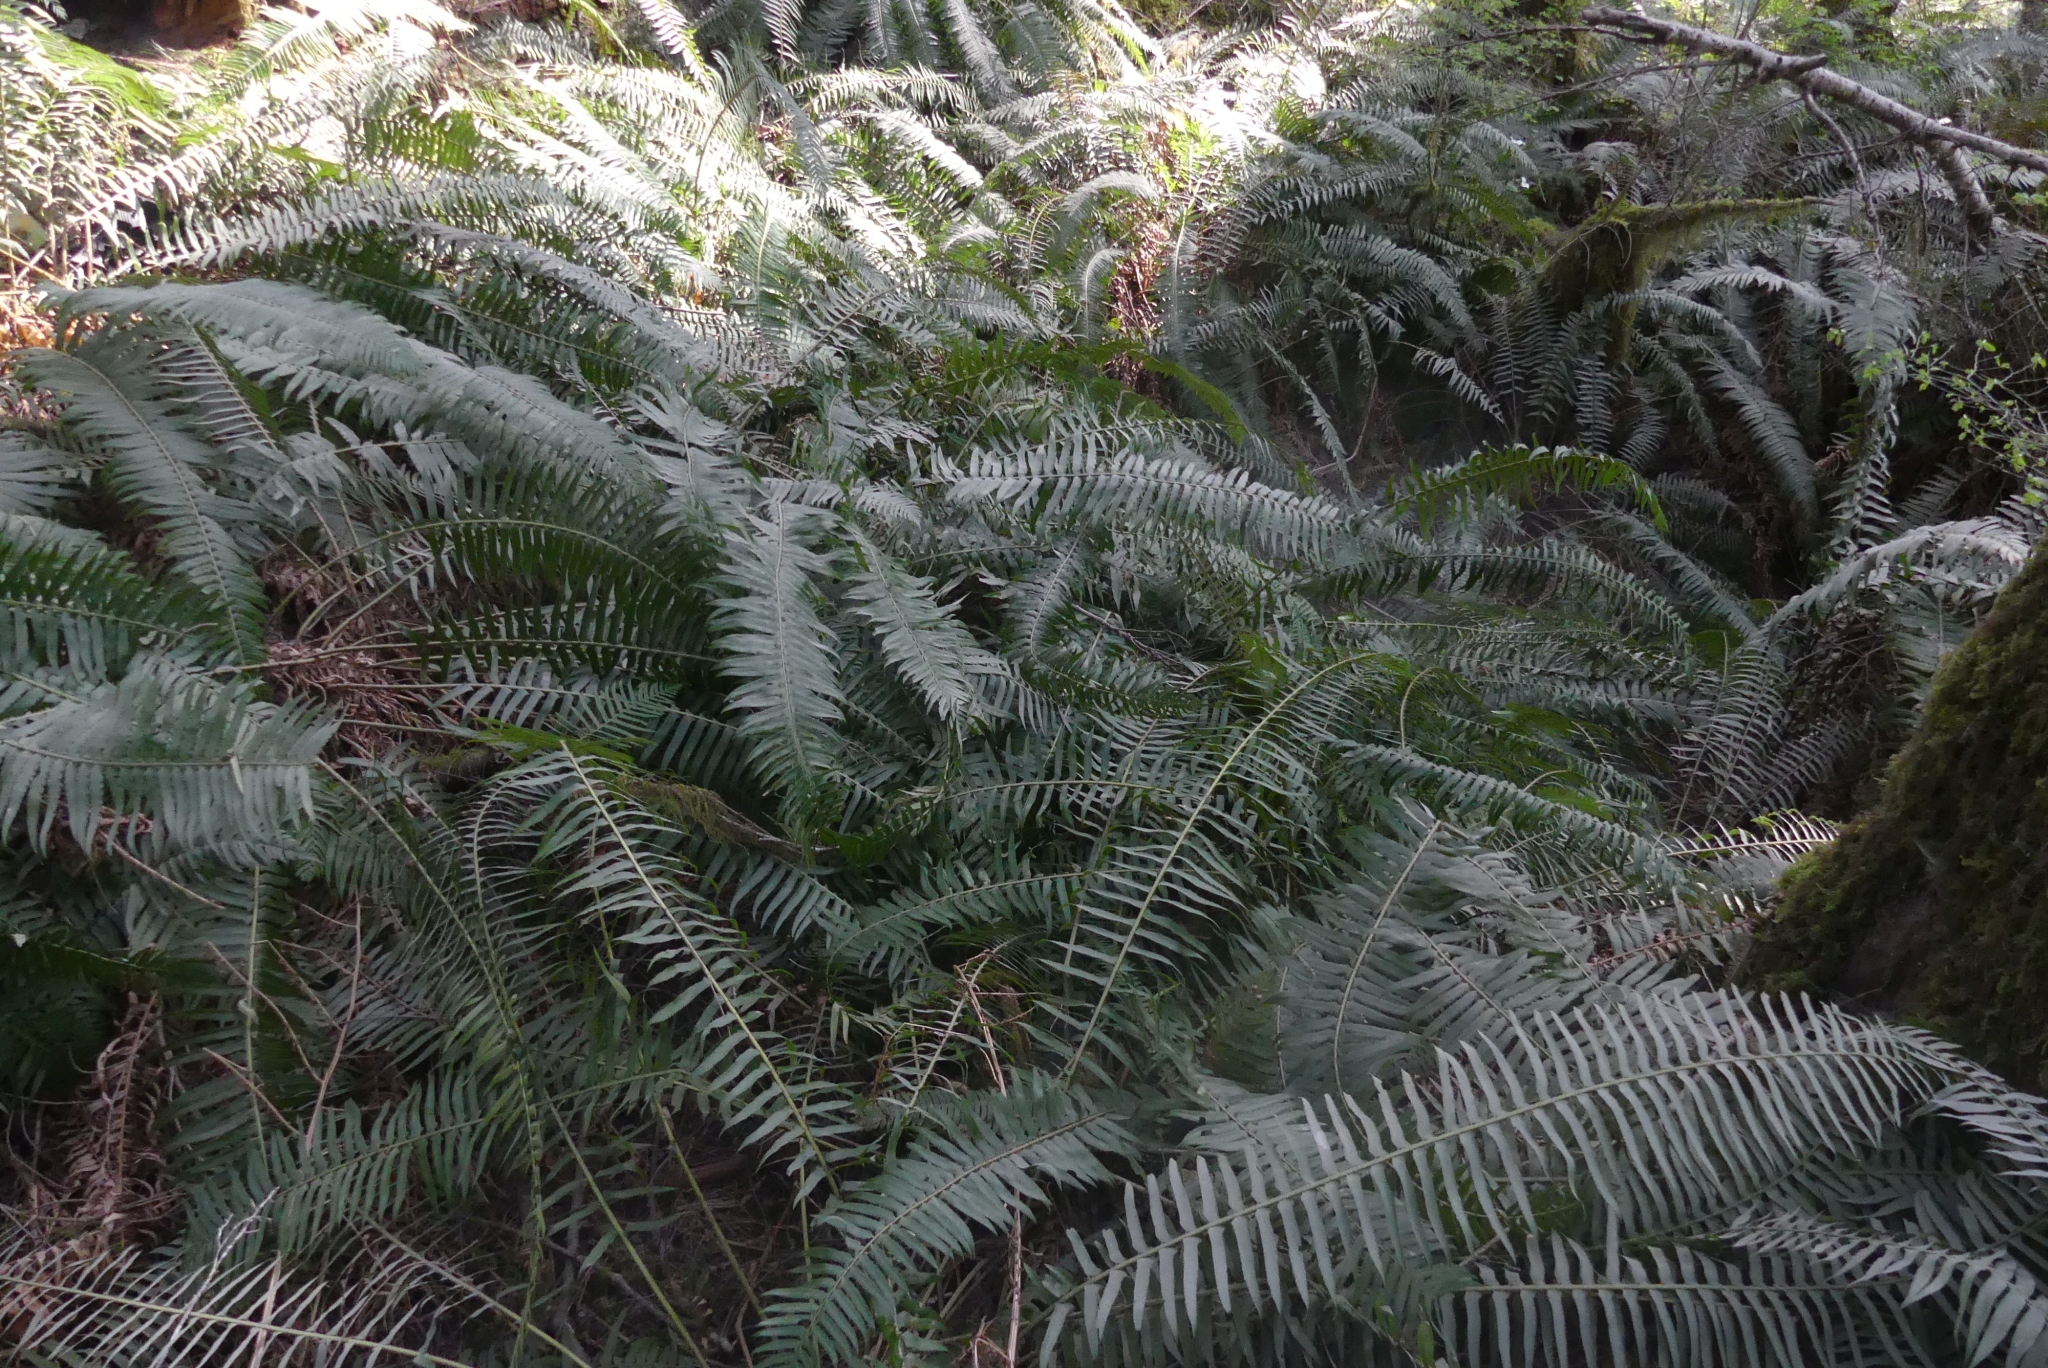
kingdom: Plantae
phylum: Tracheophyta
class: Polypodiopsida
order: Polypodiales
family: Dryopteridaceae
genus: Polystichum
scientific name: Polystichum munitum
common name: Western sword-fern
